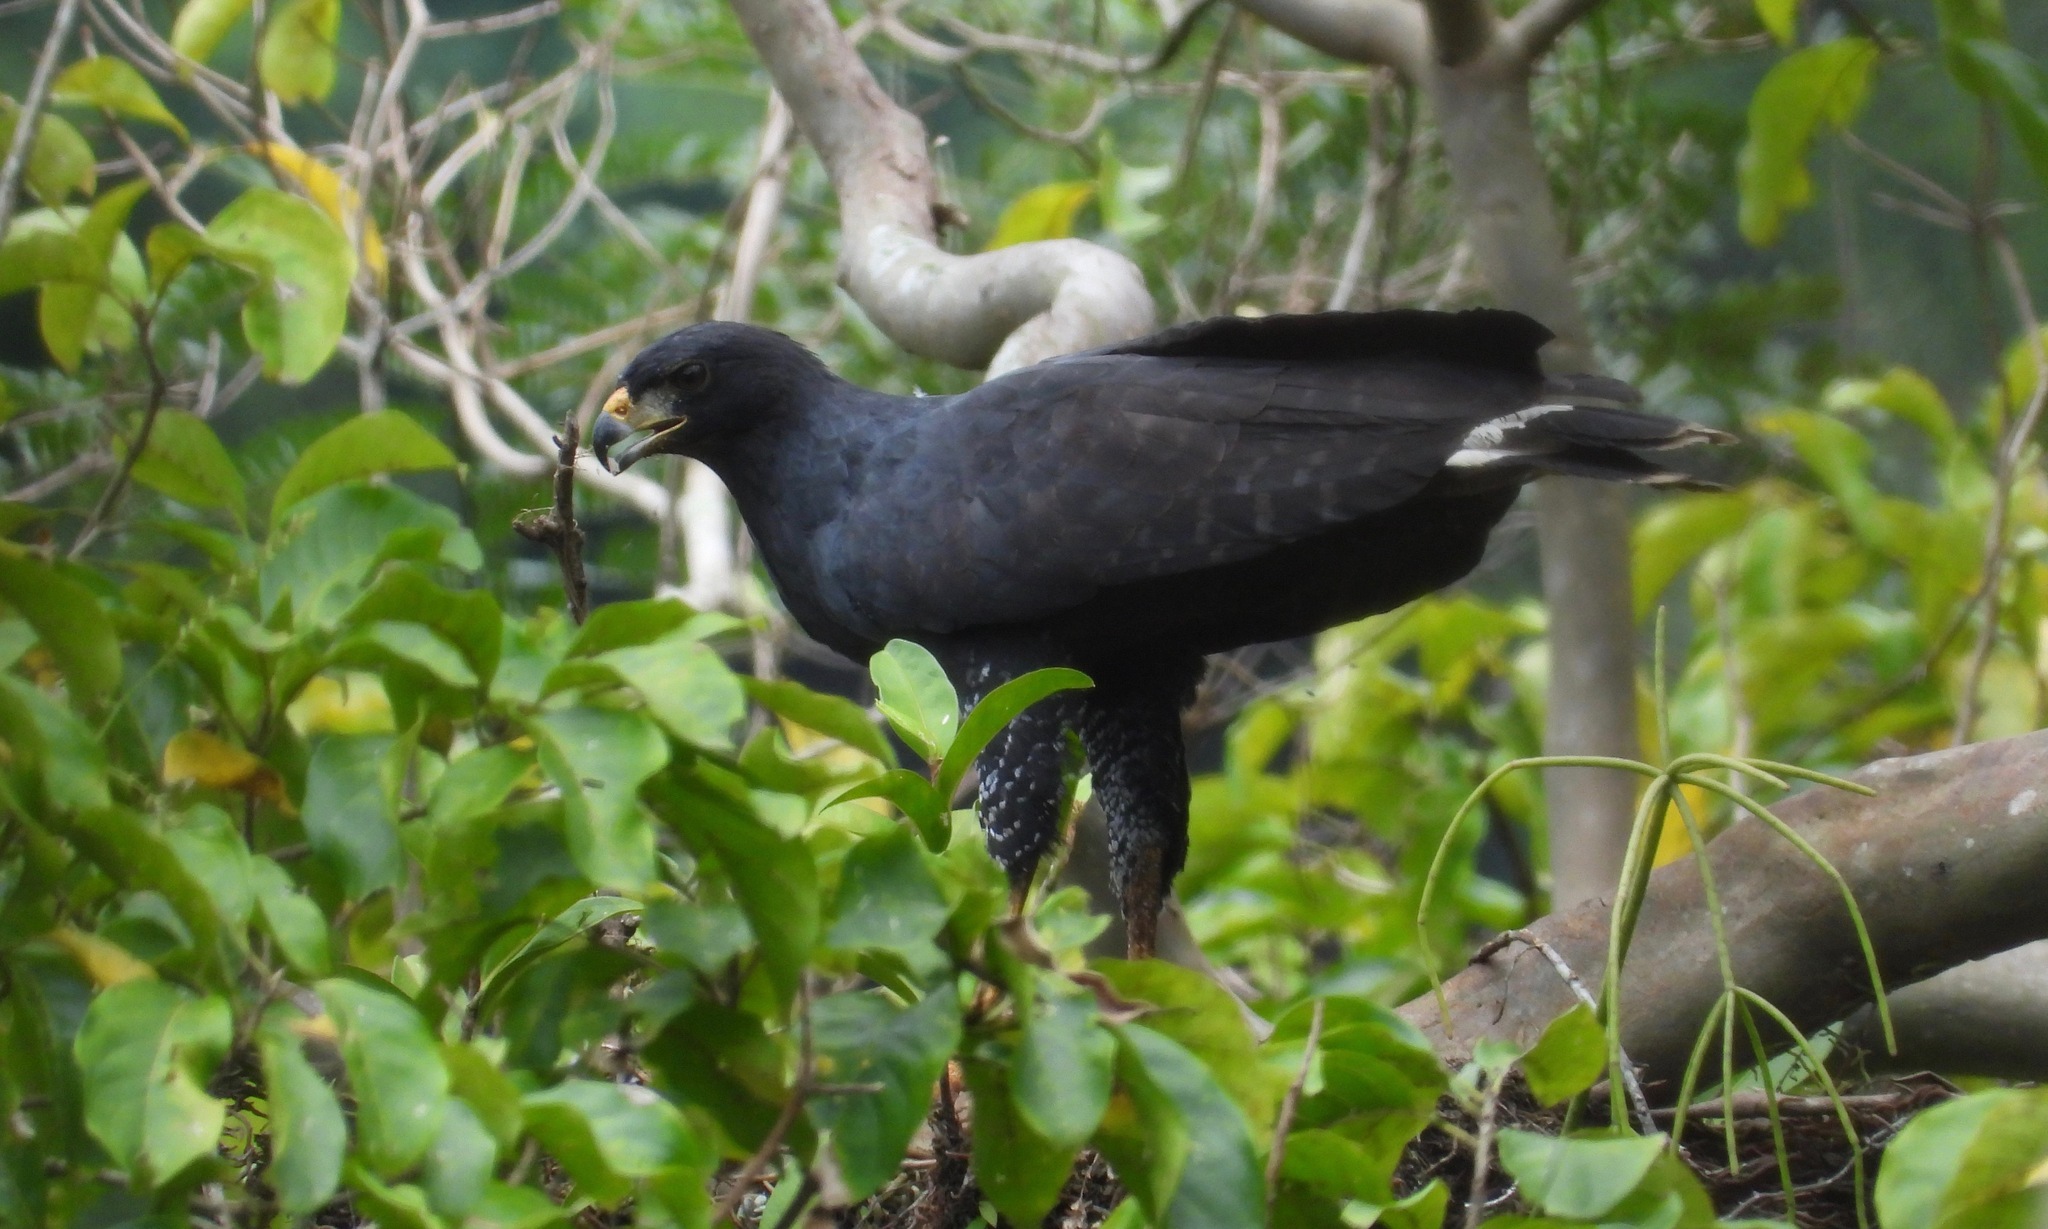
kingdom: Animalia
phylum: Chordata
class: Aves
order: Accipitriformes
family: Accipitridae
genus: Buteogallus
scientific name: Buteogallus urubitinga
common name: Great black hawk
